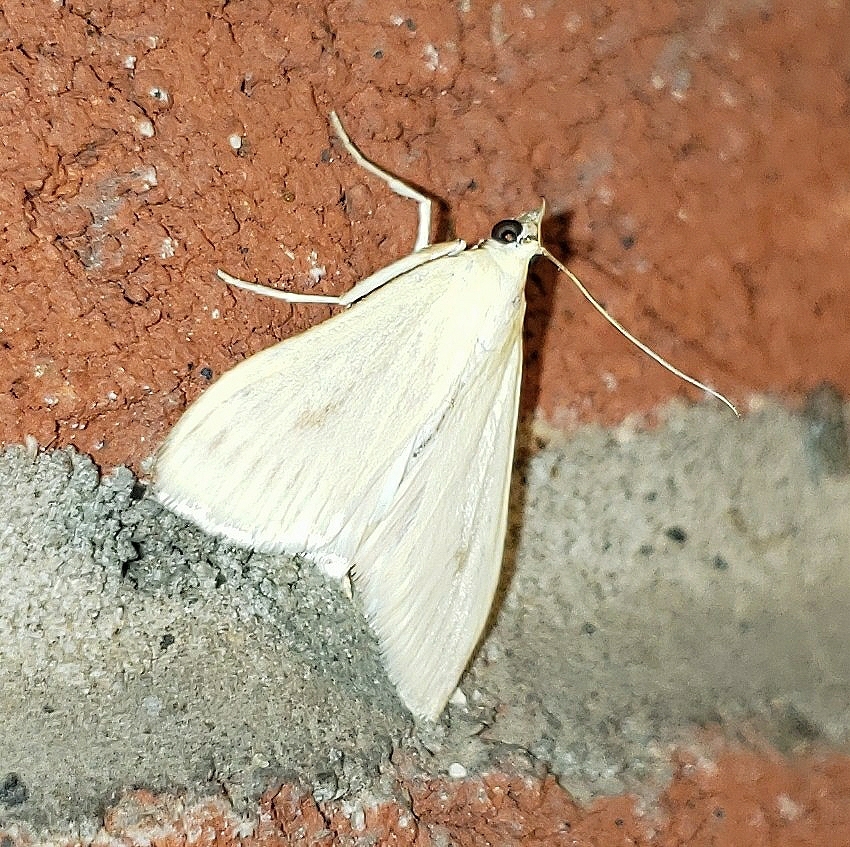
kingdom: Animalia
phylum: Arthropoda
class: Insecta
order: Lepidoptera
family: Crambidae
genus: Sitochroa
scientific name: Sitochroa palealis
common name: Greenish-yellow sitochroa moth
